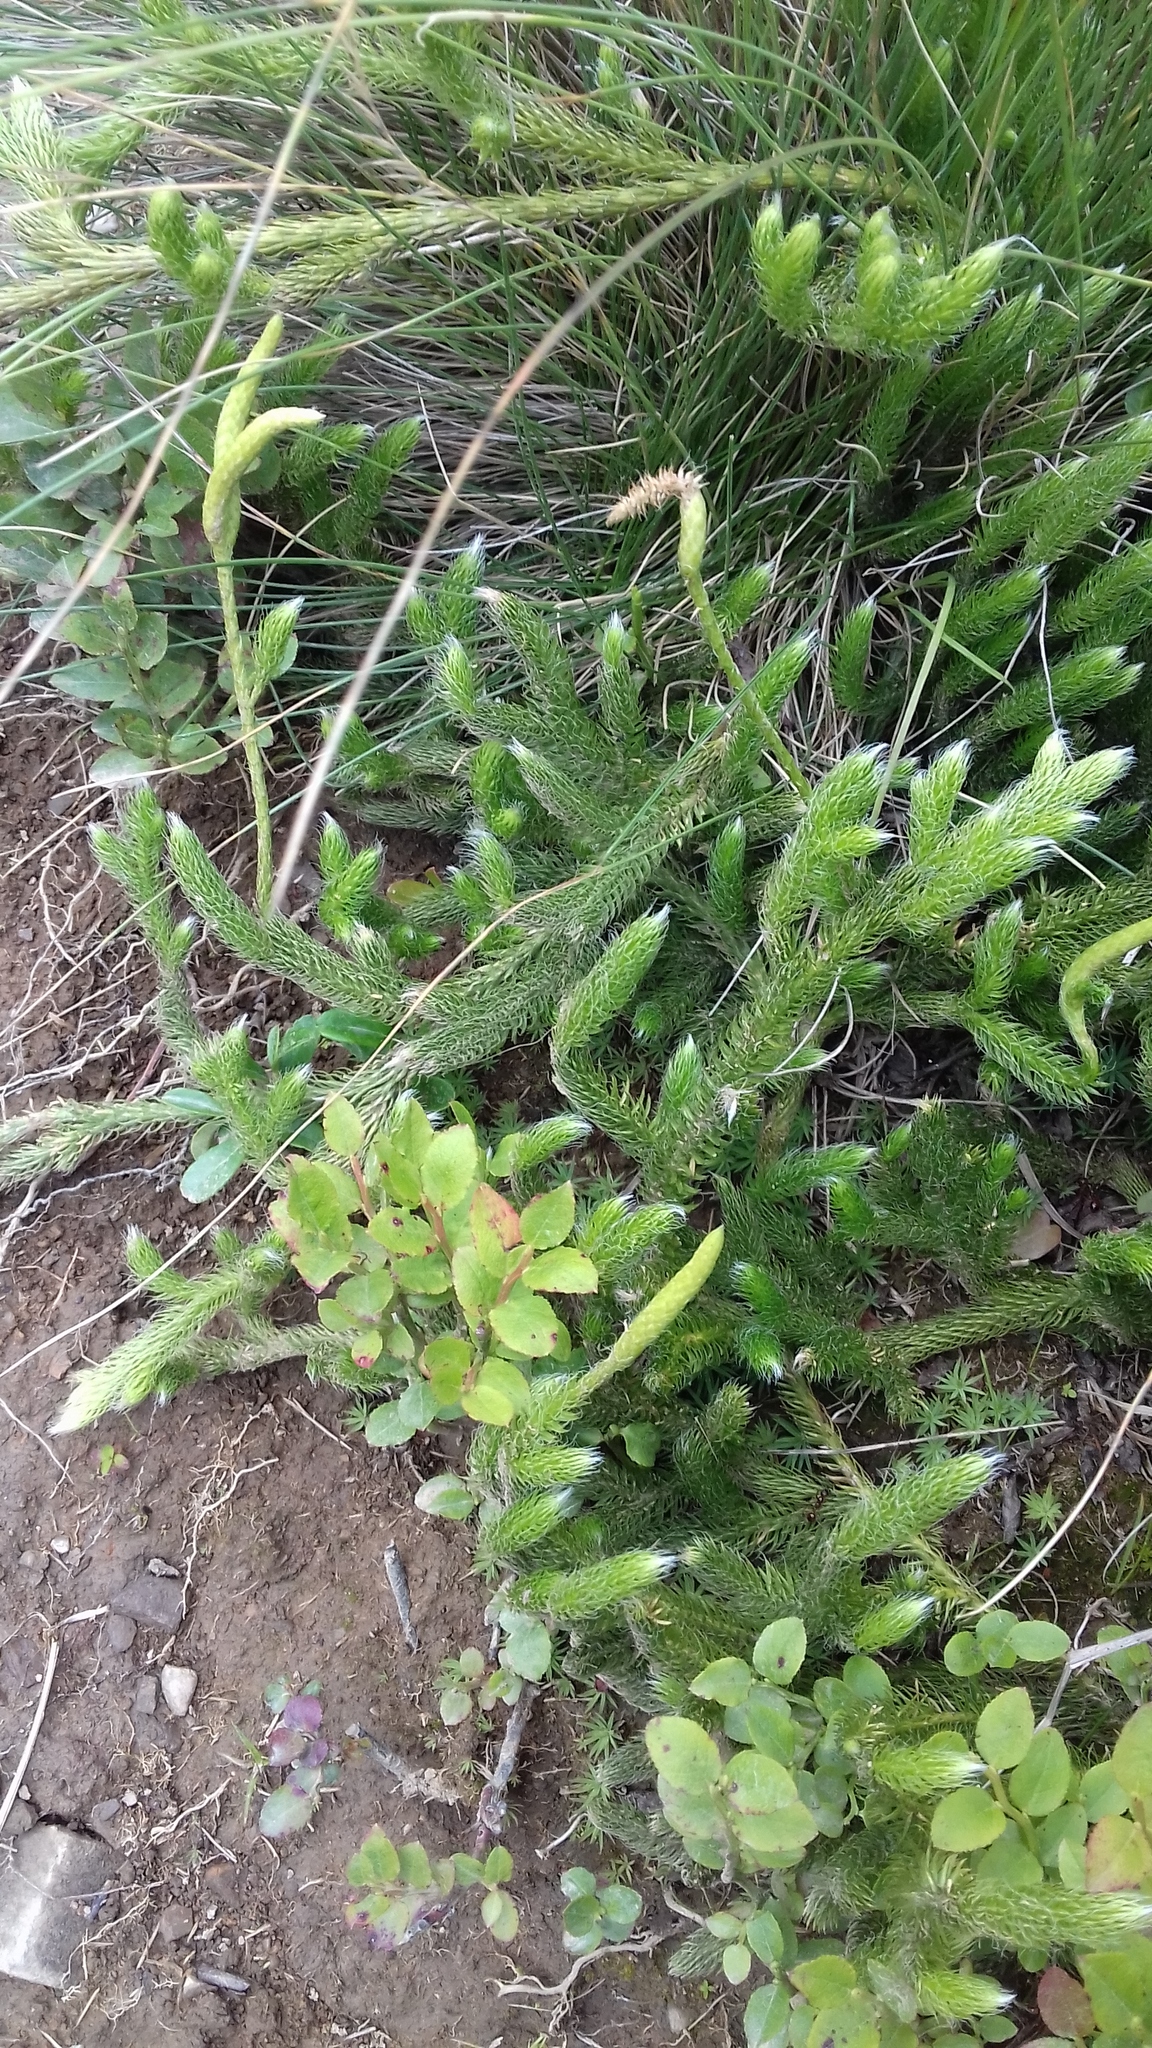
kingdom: Plantae
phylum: Tracheophyta
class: Lycopodiopsida
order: Lycopodiales
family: Lycopodiaceae
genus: Lycopodium
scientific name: Lycopodium clavatum
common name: Stag's-horn clubmoss
